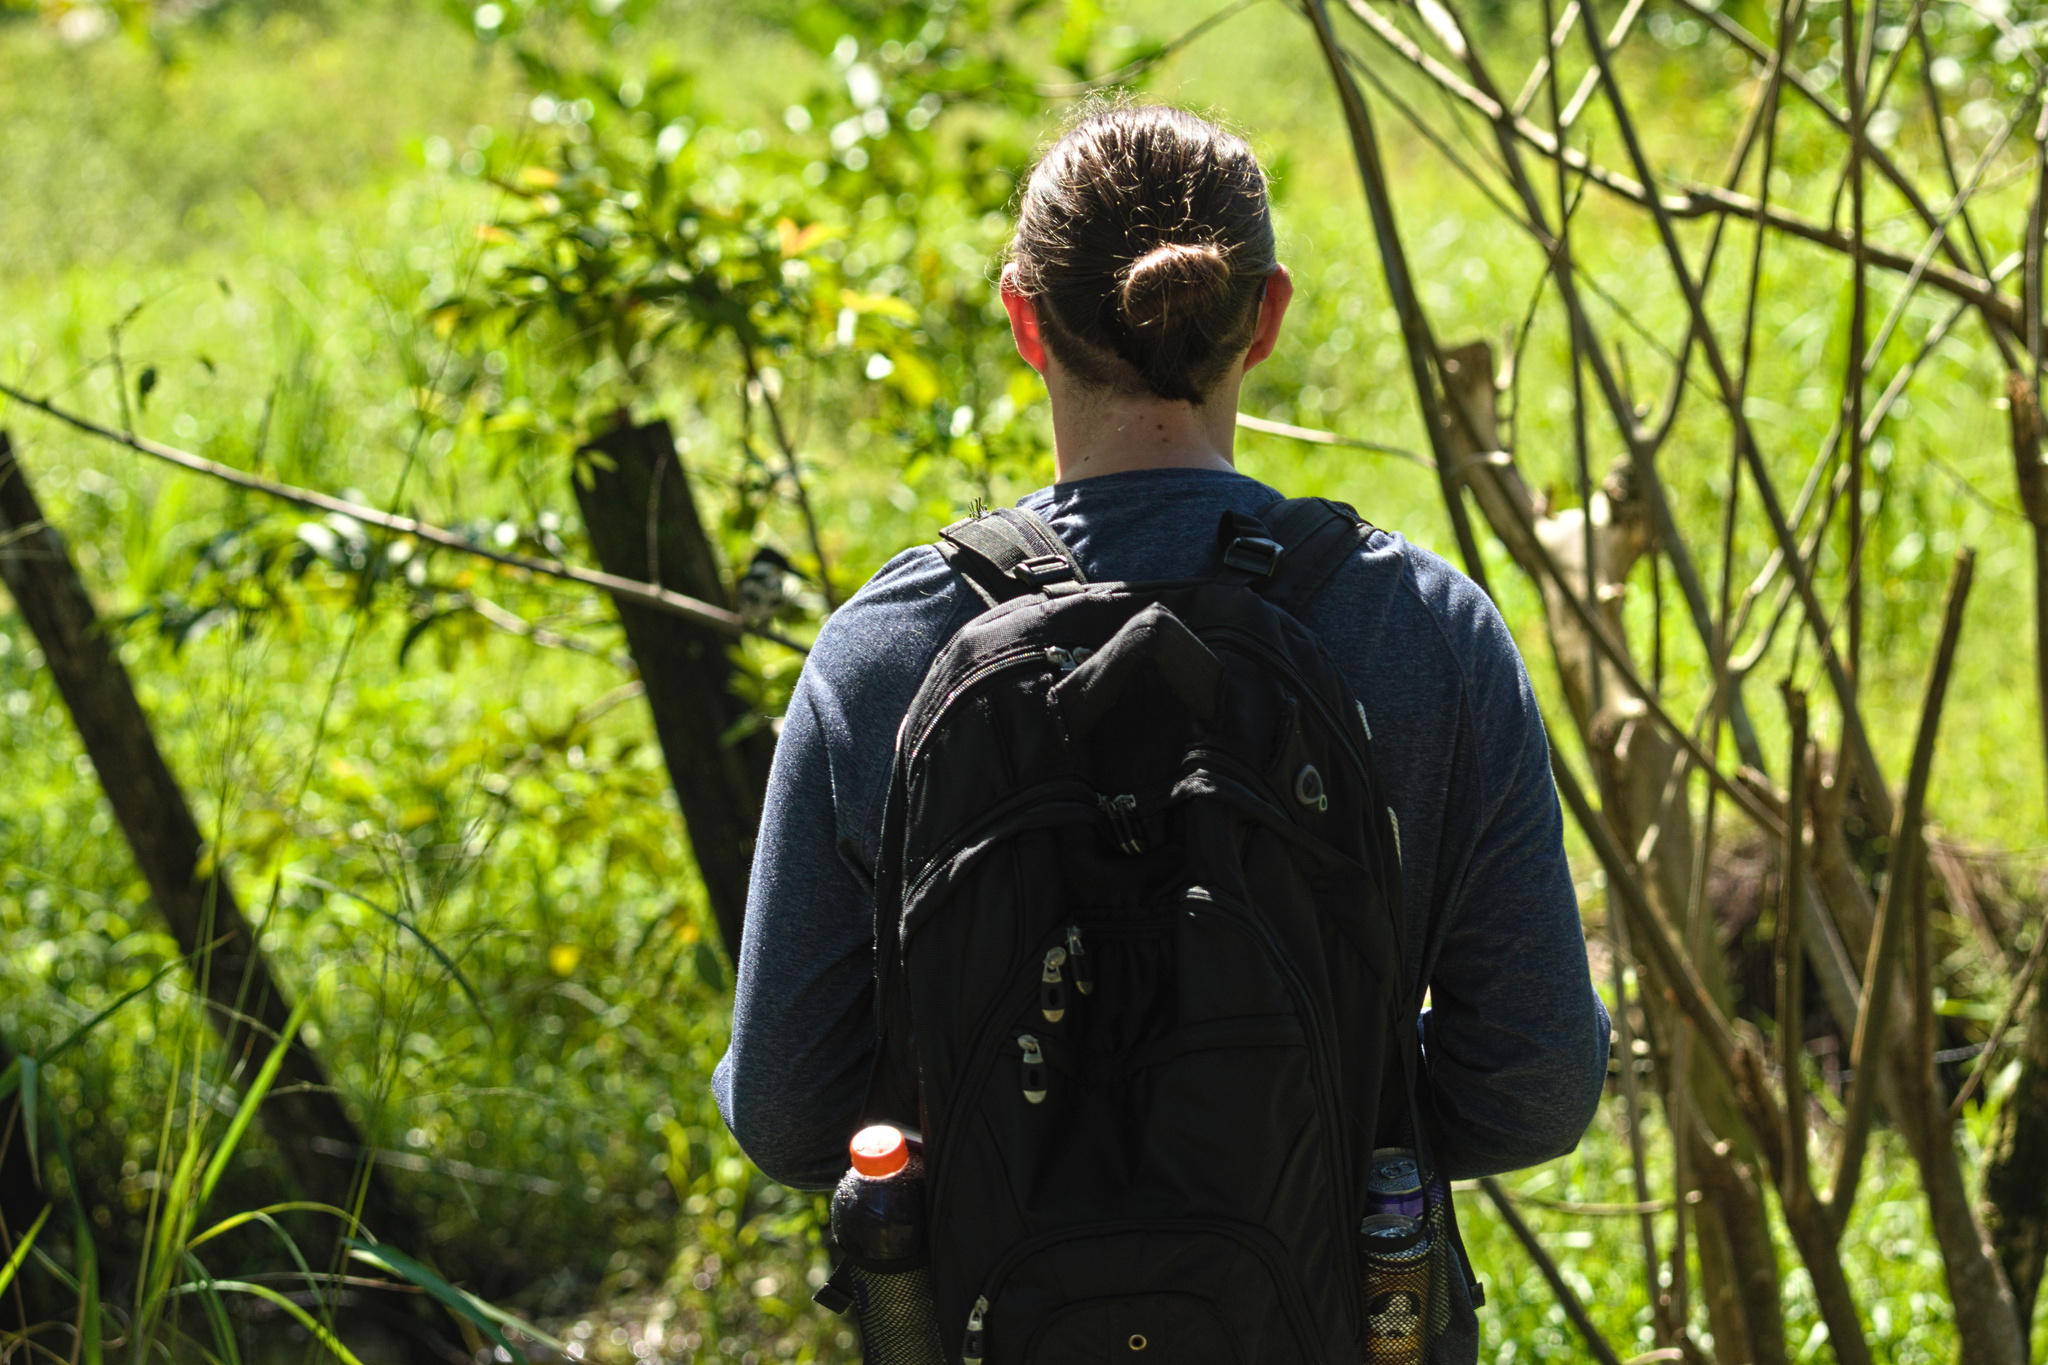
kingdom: Animalia
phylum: Chordata
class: Aves
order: Coraciiformes
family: Alcedinidae
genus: Chloroceryle
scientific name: Chloroceryle americana
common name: Green kingfisher
